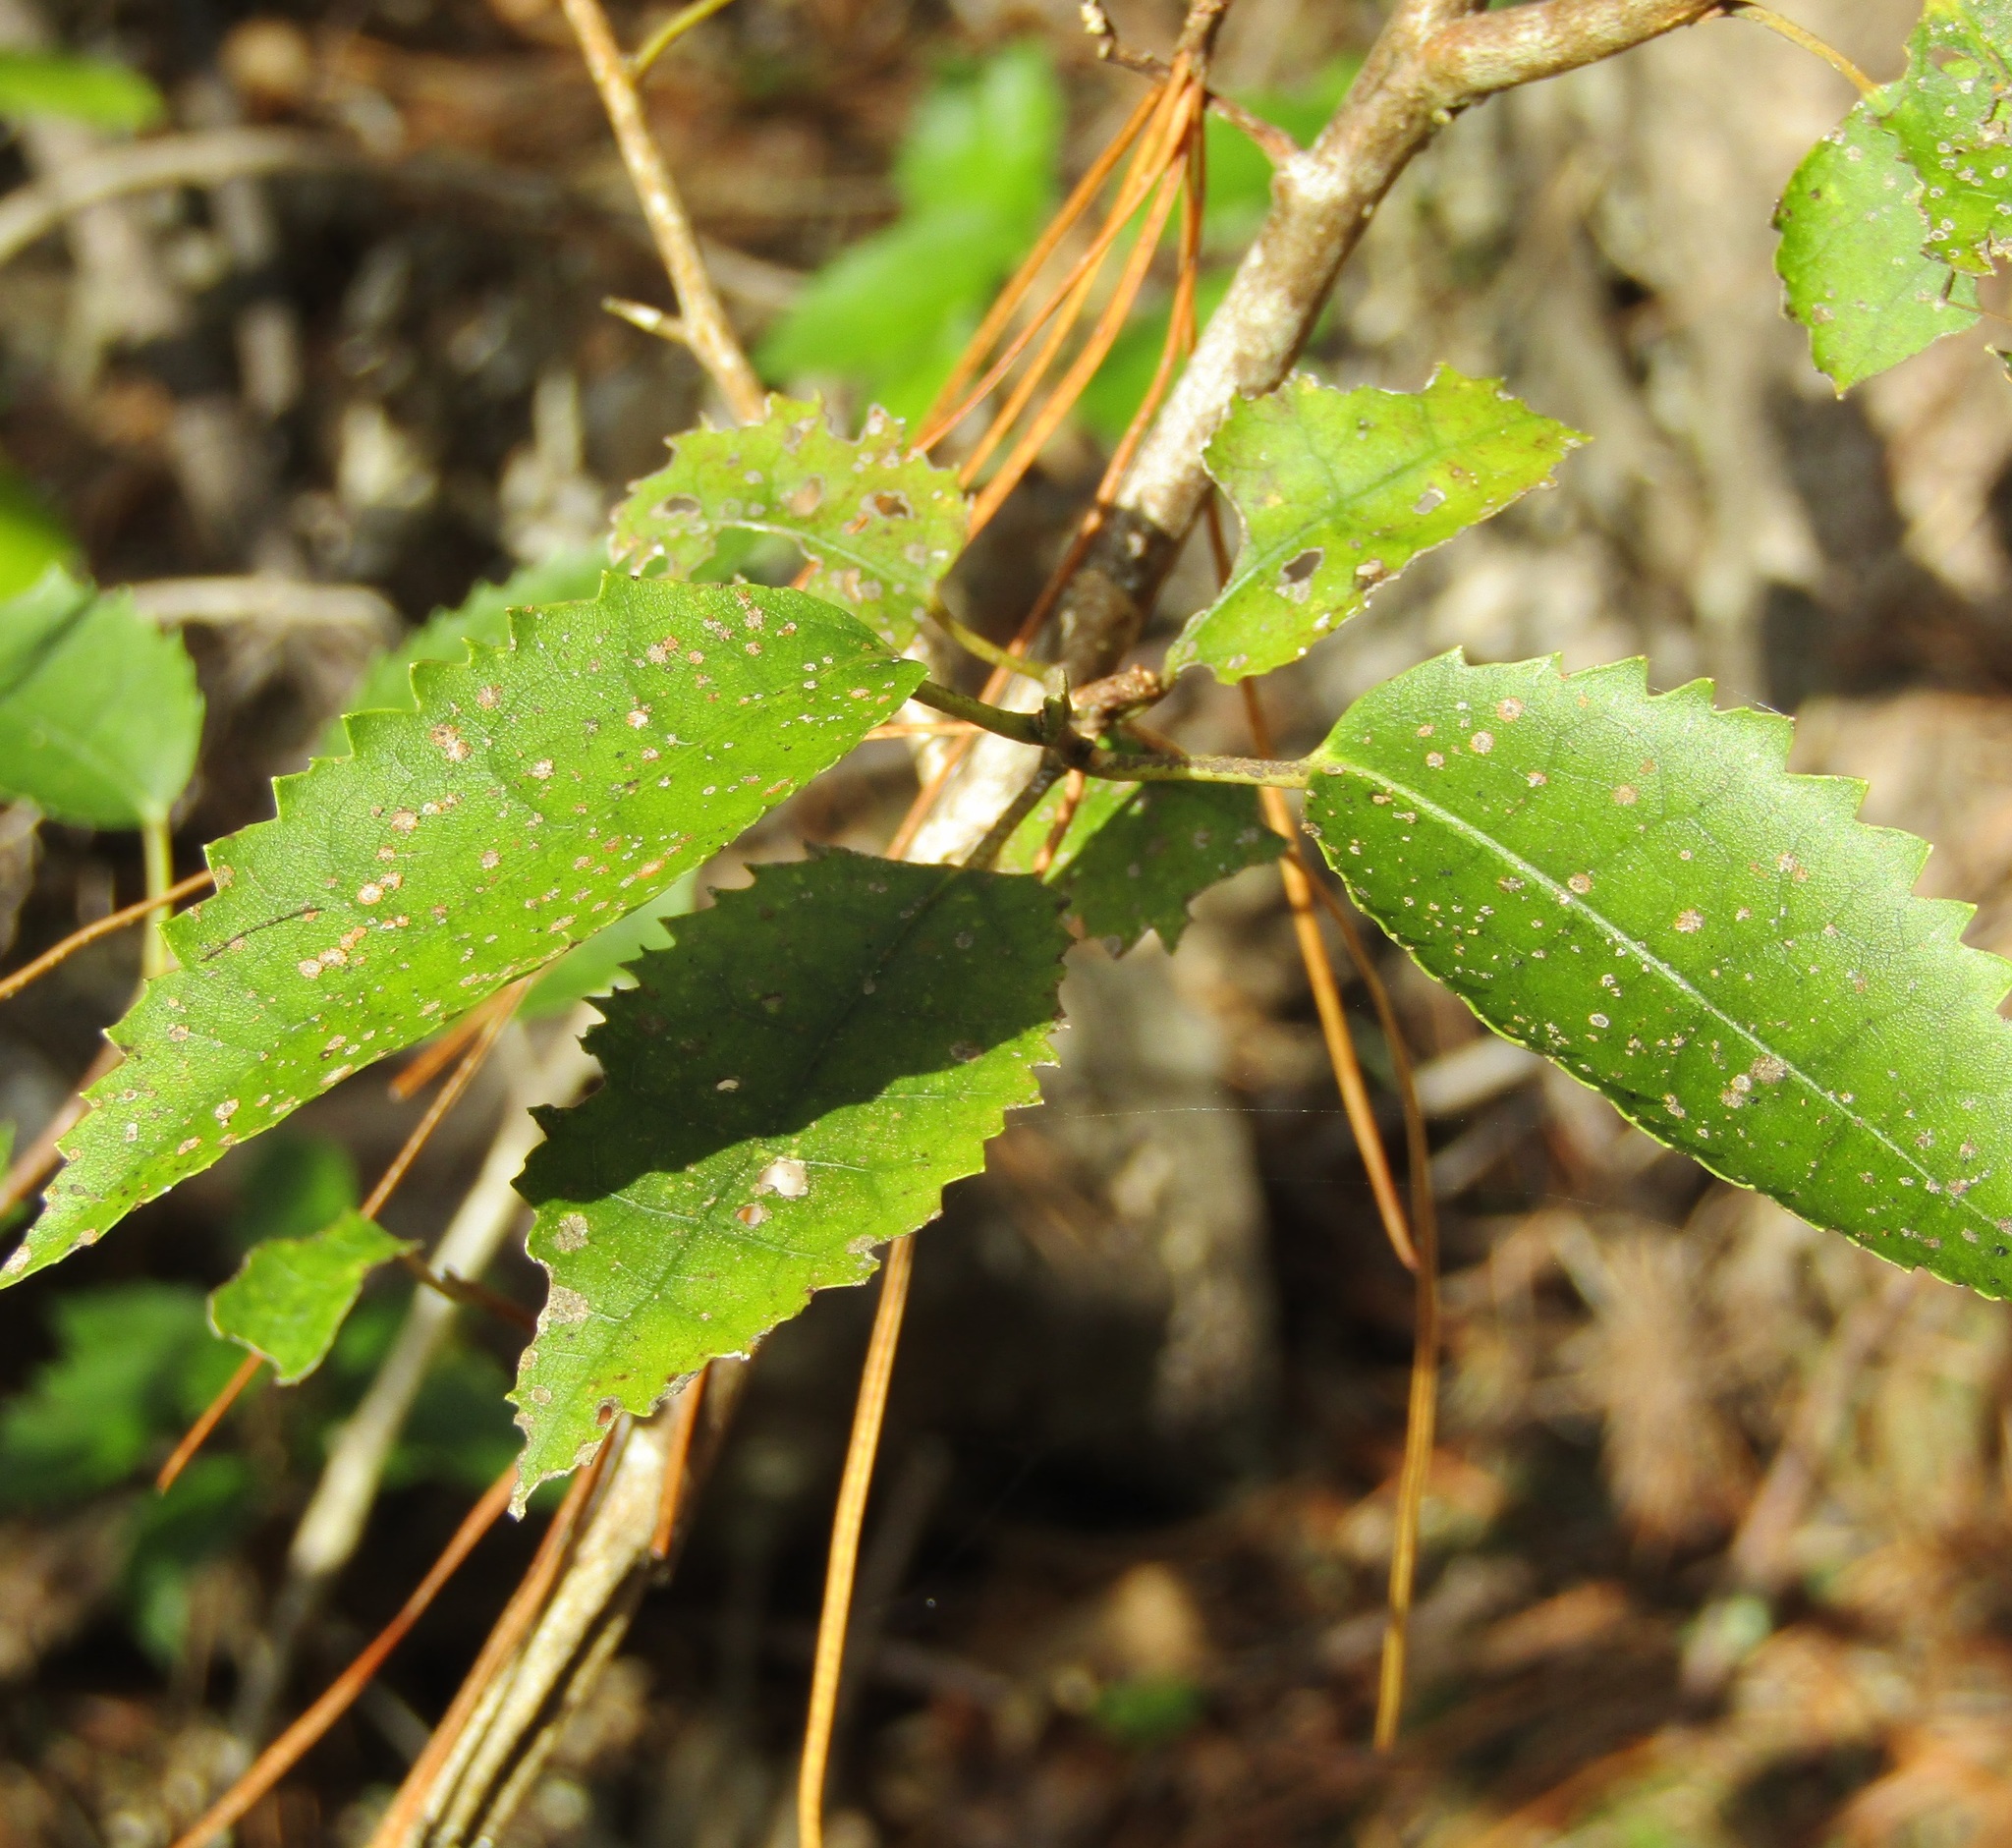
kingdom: Plantae
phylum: Tracheophyta
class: Magnoliopsida
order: Malvales
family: Malvaceae
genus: Hoheria
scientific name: Hoheria populnea
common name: Lacebark
